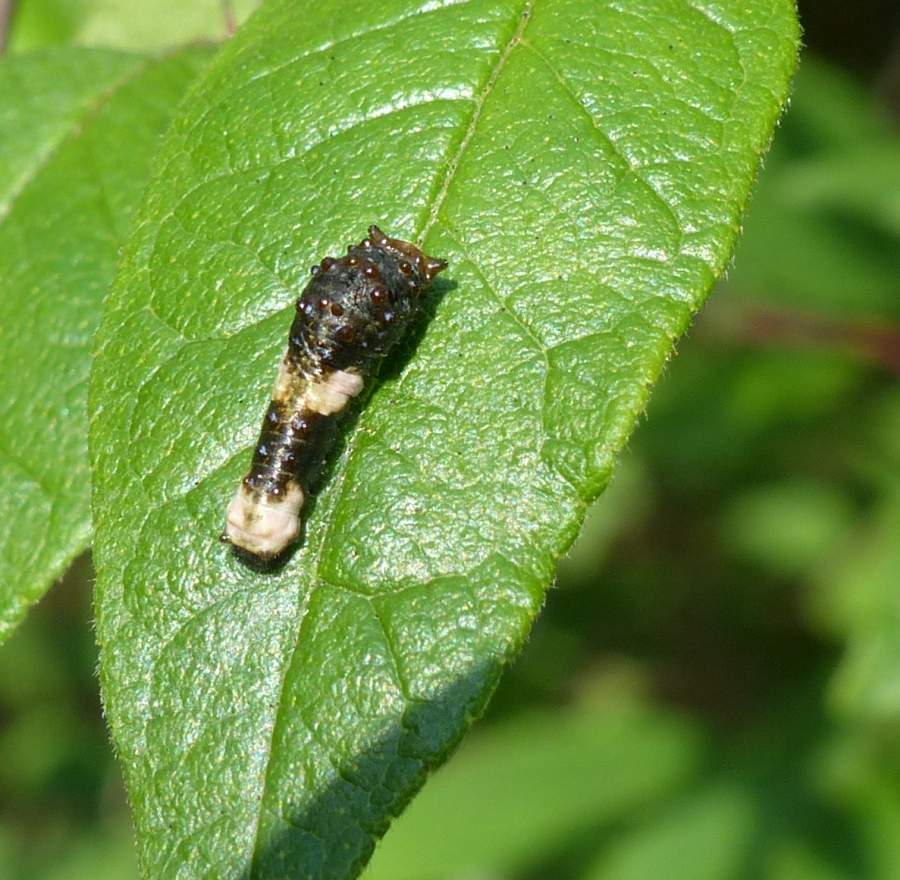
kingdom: Animalia
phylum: Arthropoda
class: Insecta
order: Lepidoptera
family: Papilionidae
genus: Papilio
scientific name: Papilio cresphontes
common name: Giant swallowtail
